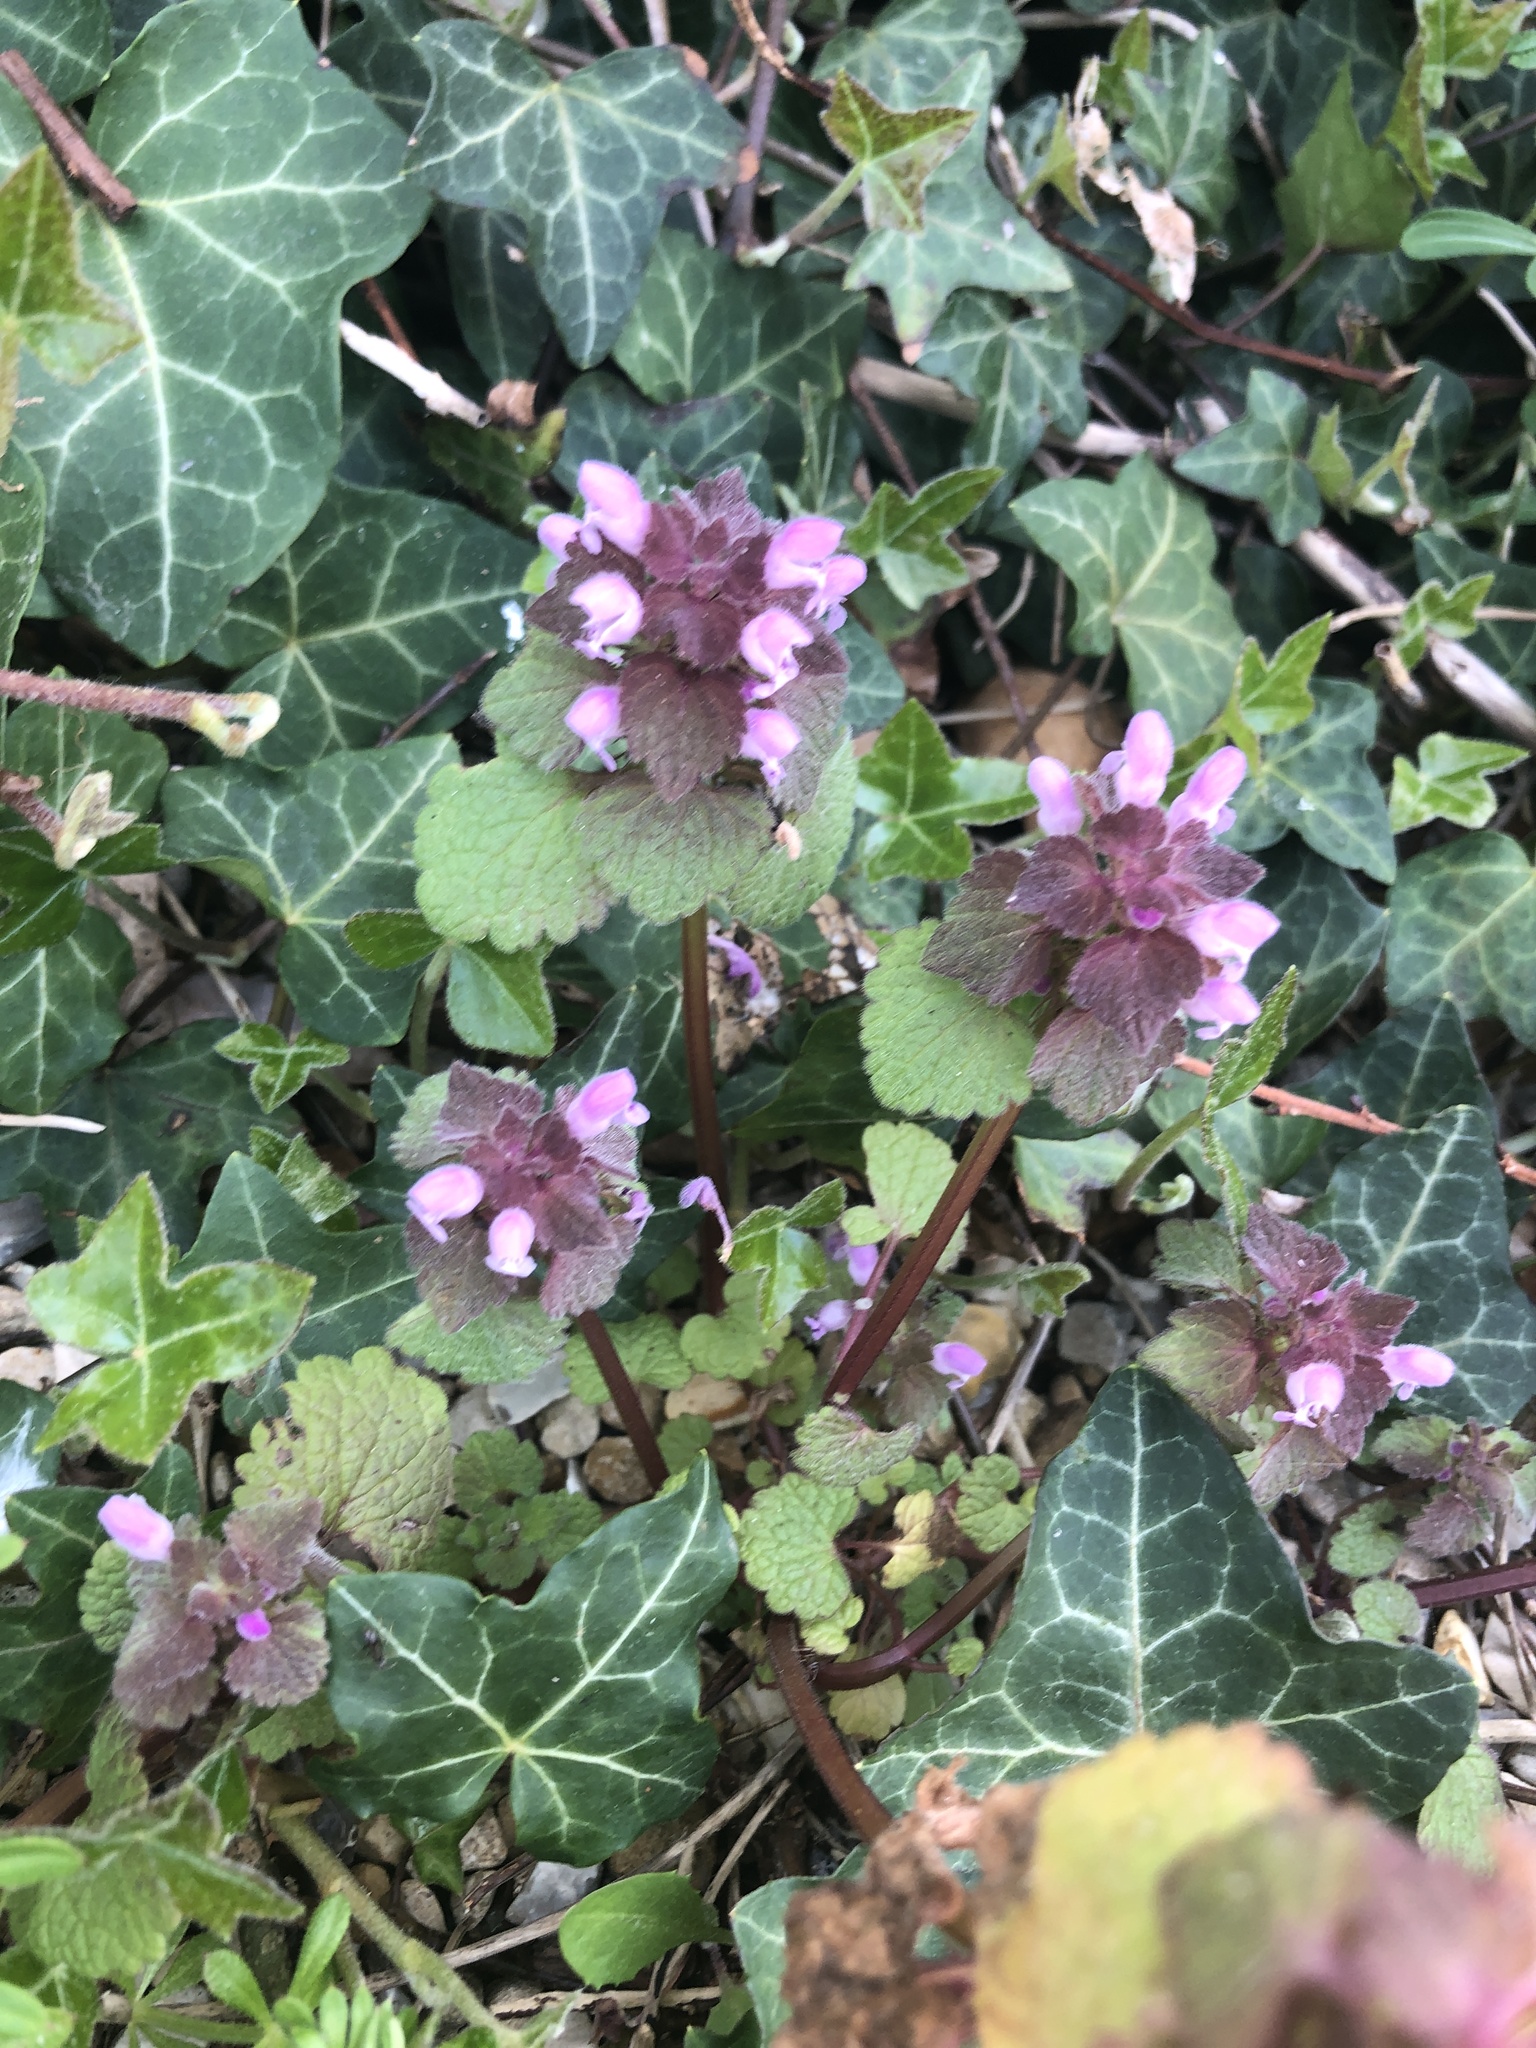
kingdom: Plantae
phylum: Tracheophyta
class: Magnoliopsida
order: Lamiales
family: Lamiaceae
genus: Lamium
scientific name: Lamium purpureum
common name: Red dead-nettle
